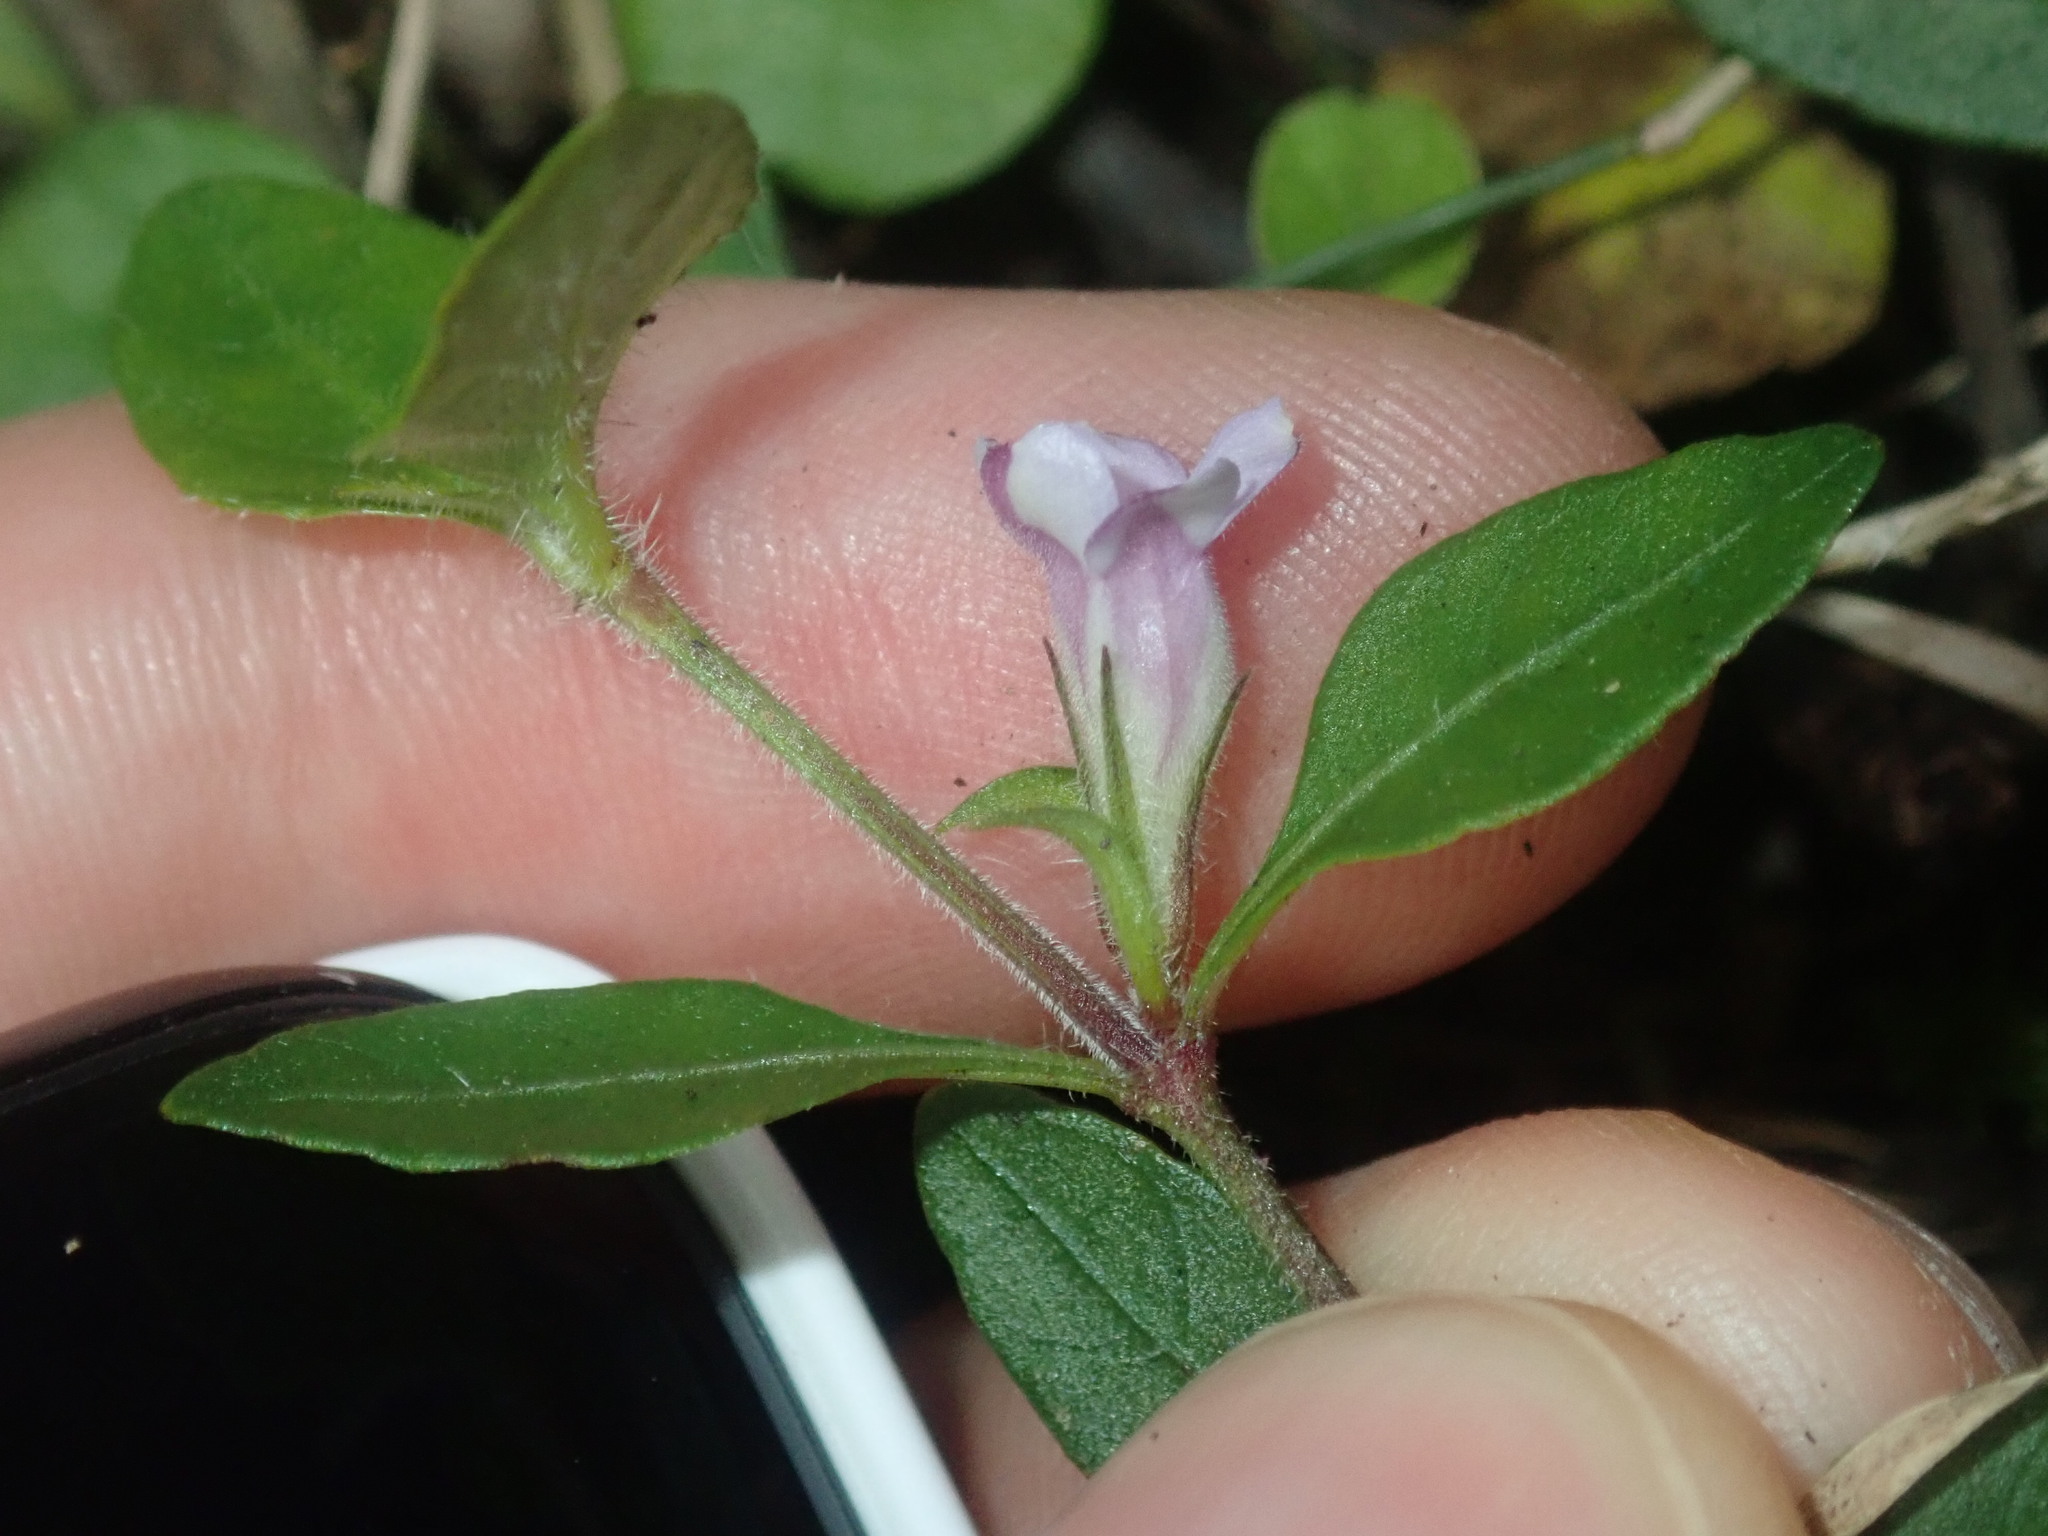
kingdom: Plantae
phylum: Tracheophyta
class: Magnoliopsida
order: Lamiales
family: Acanthaceae
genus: Brunoniella
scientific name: Brunoniella australis
